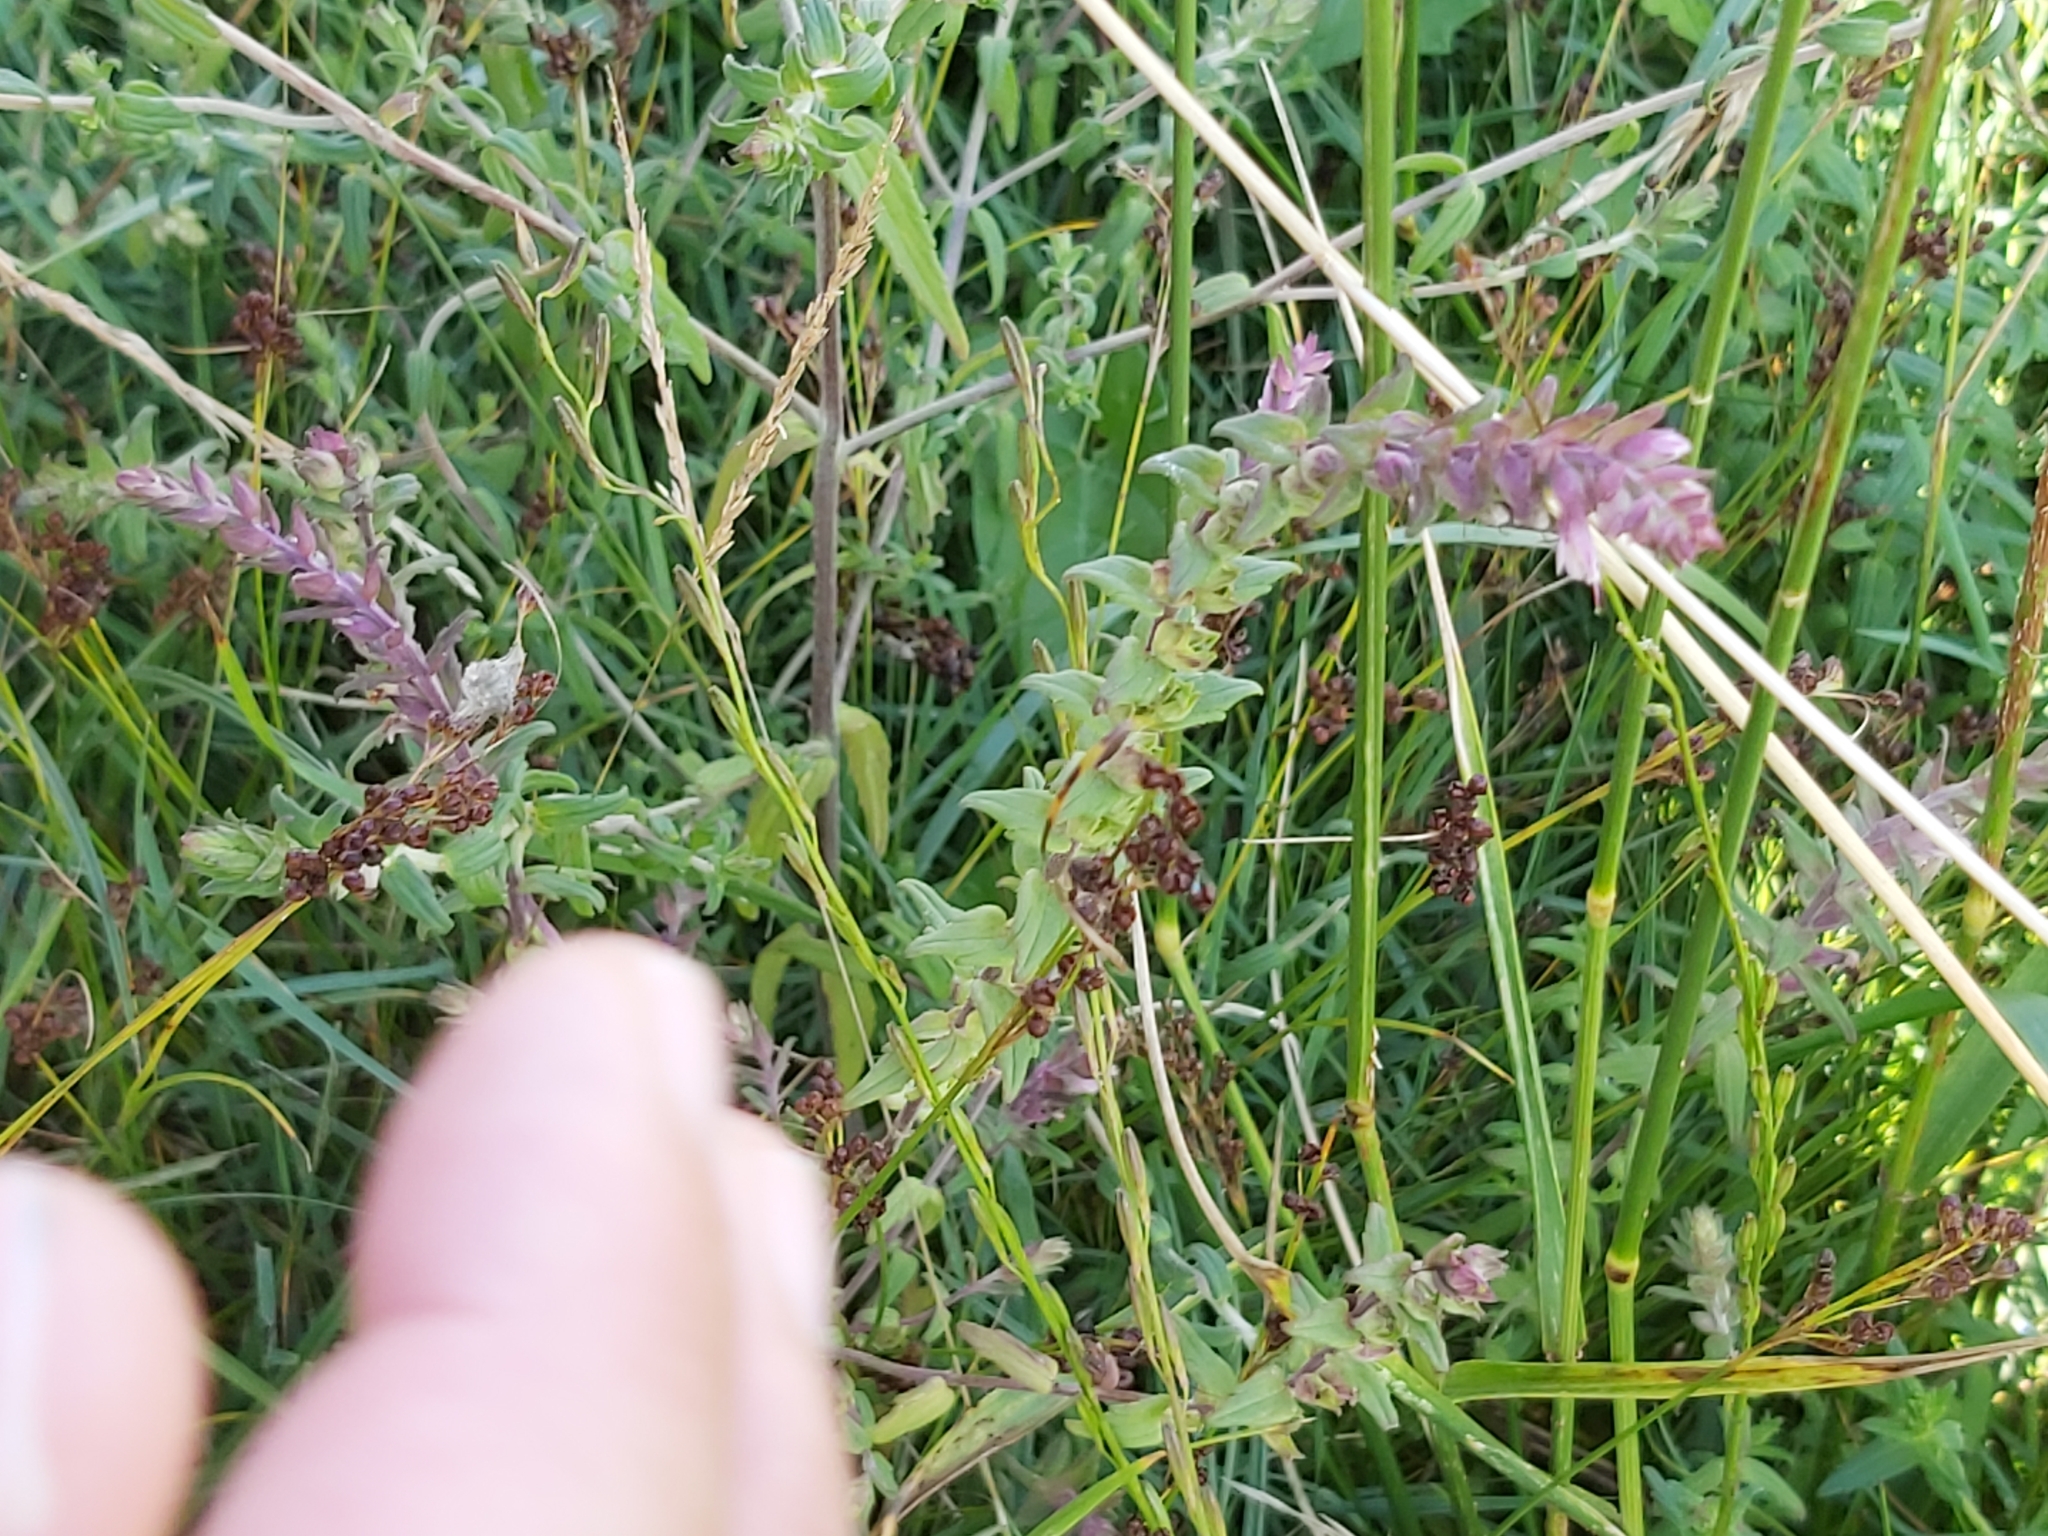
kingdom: Plantae
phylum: Tracheophyta
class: Magnoliopsida
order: Lamiales
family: Orobanchaceae
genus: Odontites
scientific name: Odontites litoralis
